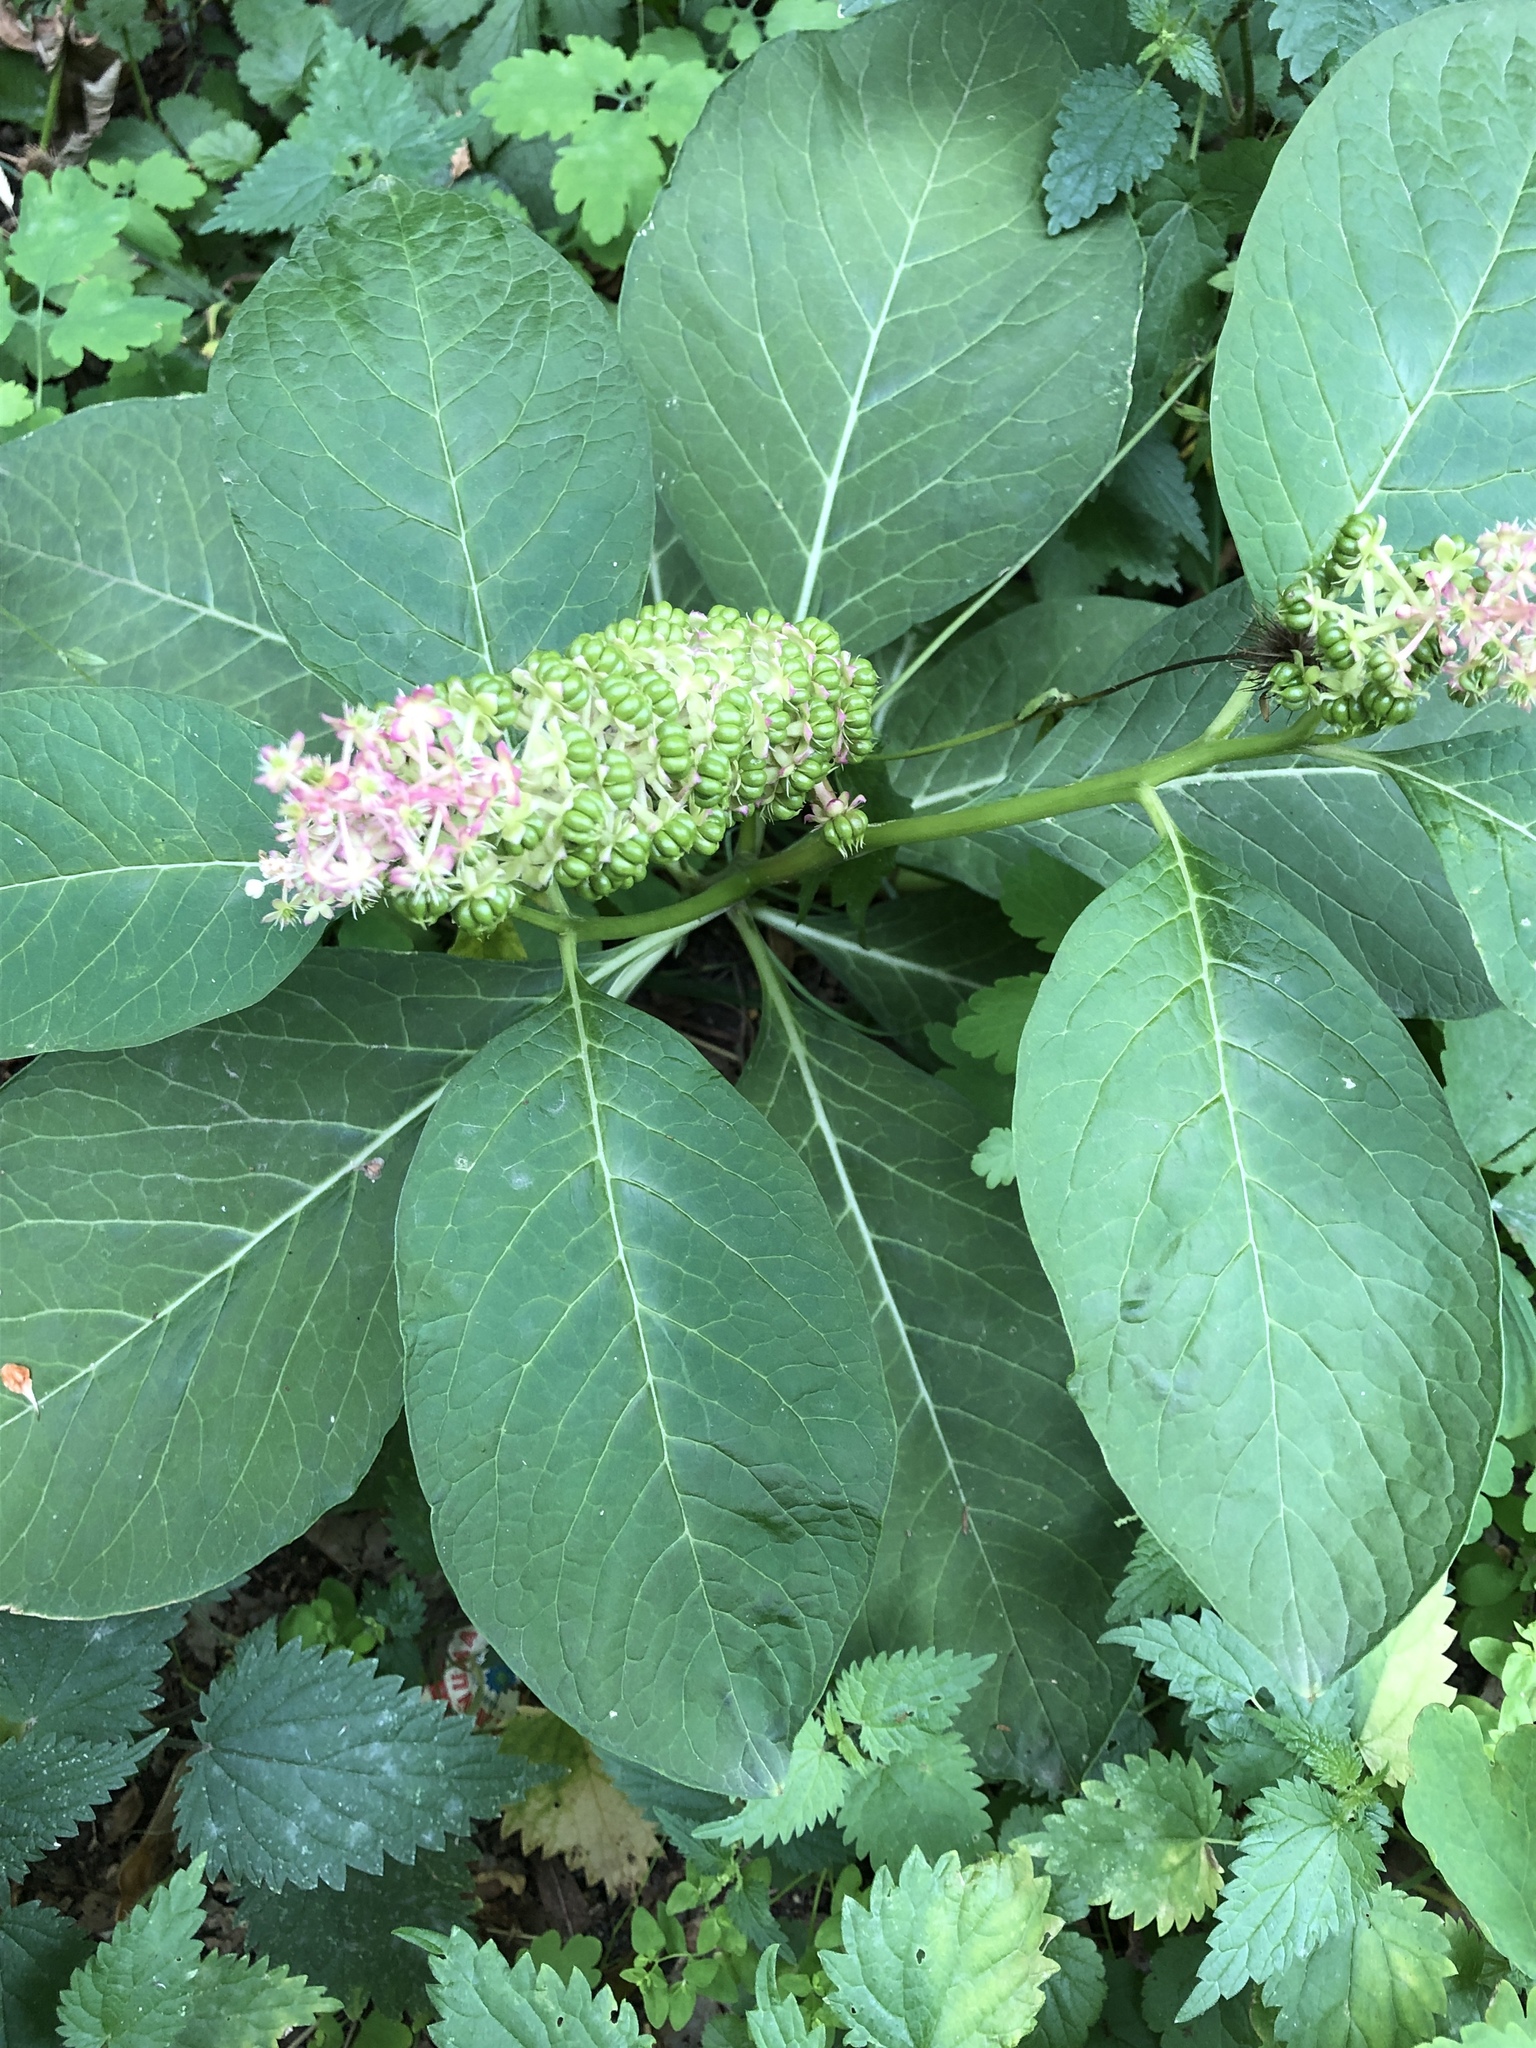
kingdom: Plantae
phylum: Tracheophyta
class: Magnoliopsida
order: Caryophyllales
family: Phytolaccaceae
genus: Phytolacca
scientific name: Phytolacca acinosa
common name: Indian pokeweed
